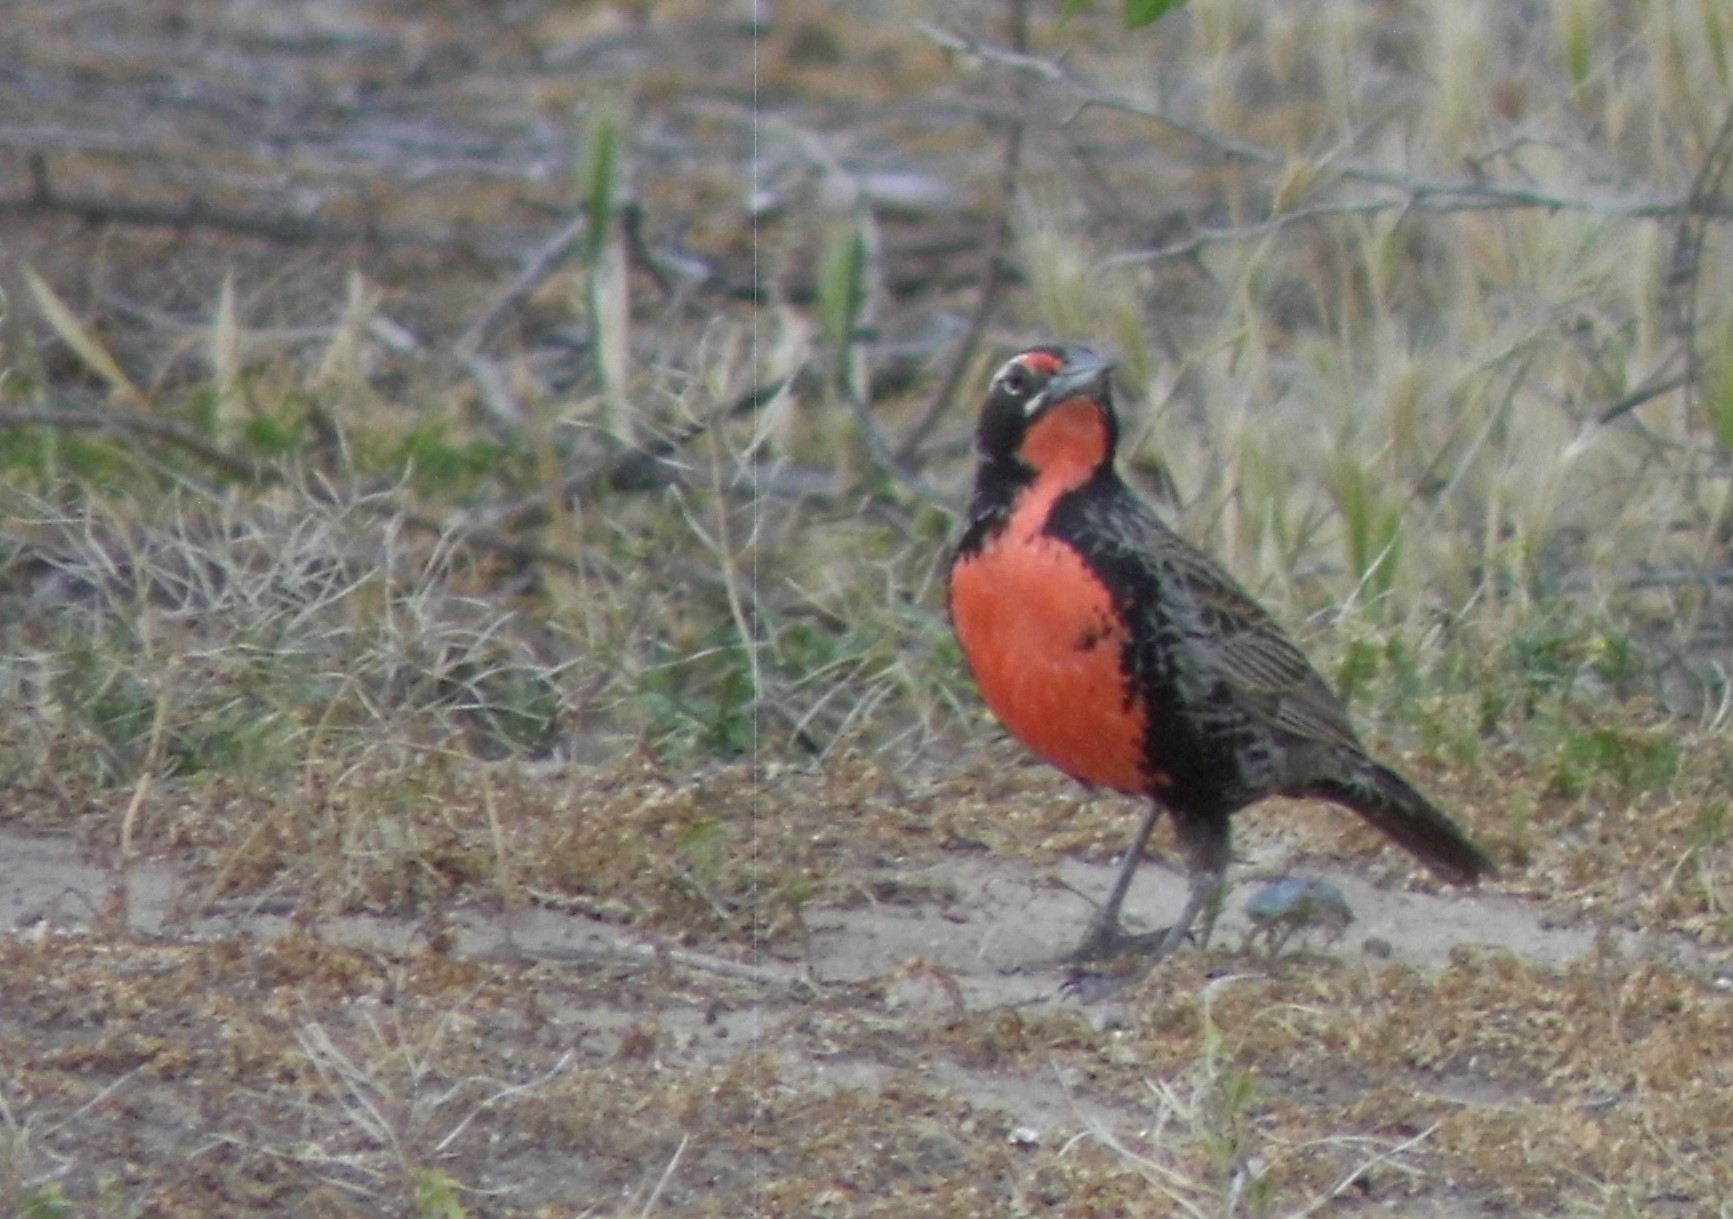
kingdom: Animalia
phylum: Chordata
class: Aves
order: Passeriformes
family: Icteridae
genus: Sturnella
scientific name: Sturnella loyca
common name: Long-tailed meadowlark
